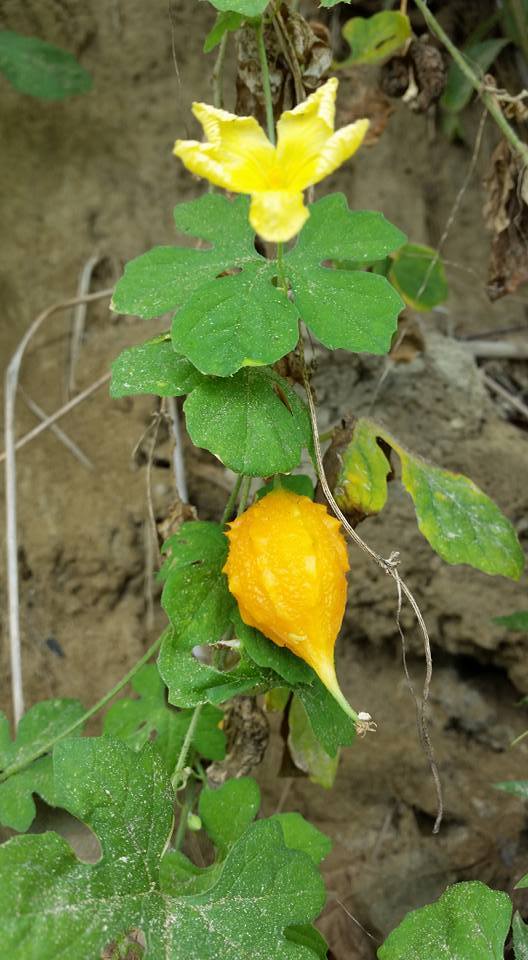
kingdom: Plantae
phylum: Tracheophyta
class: Magnoliopsida
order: Cucurbitales
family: Cucurbitaceae
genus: Momordica
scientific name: Momordica charantia
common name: Balsampear
